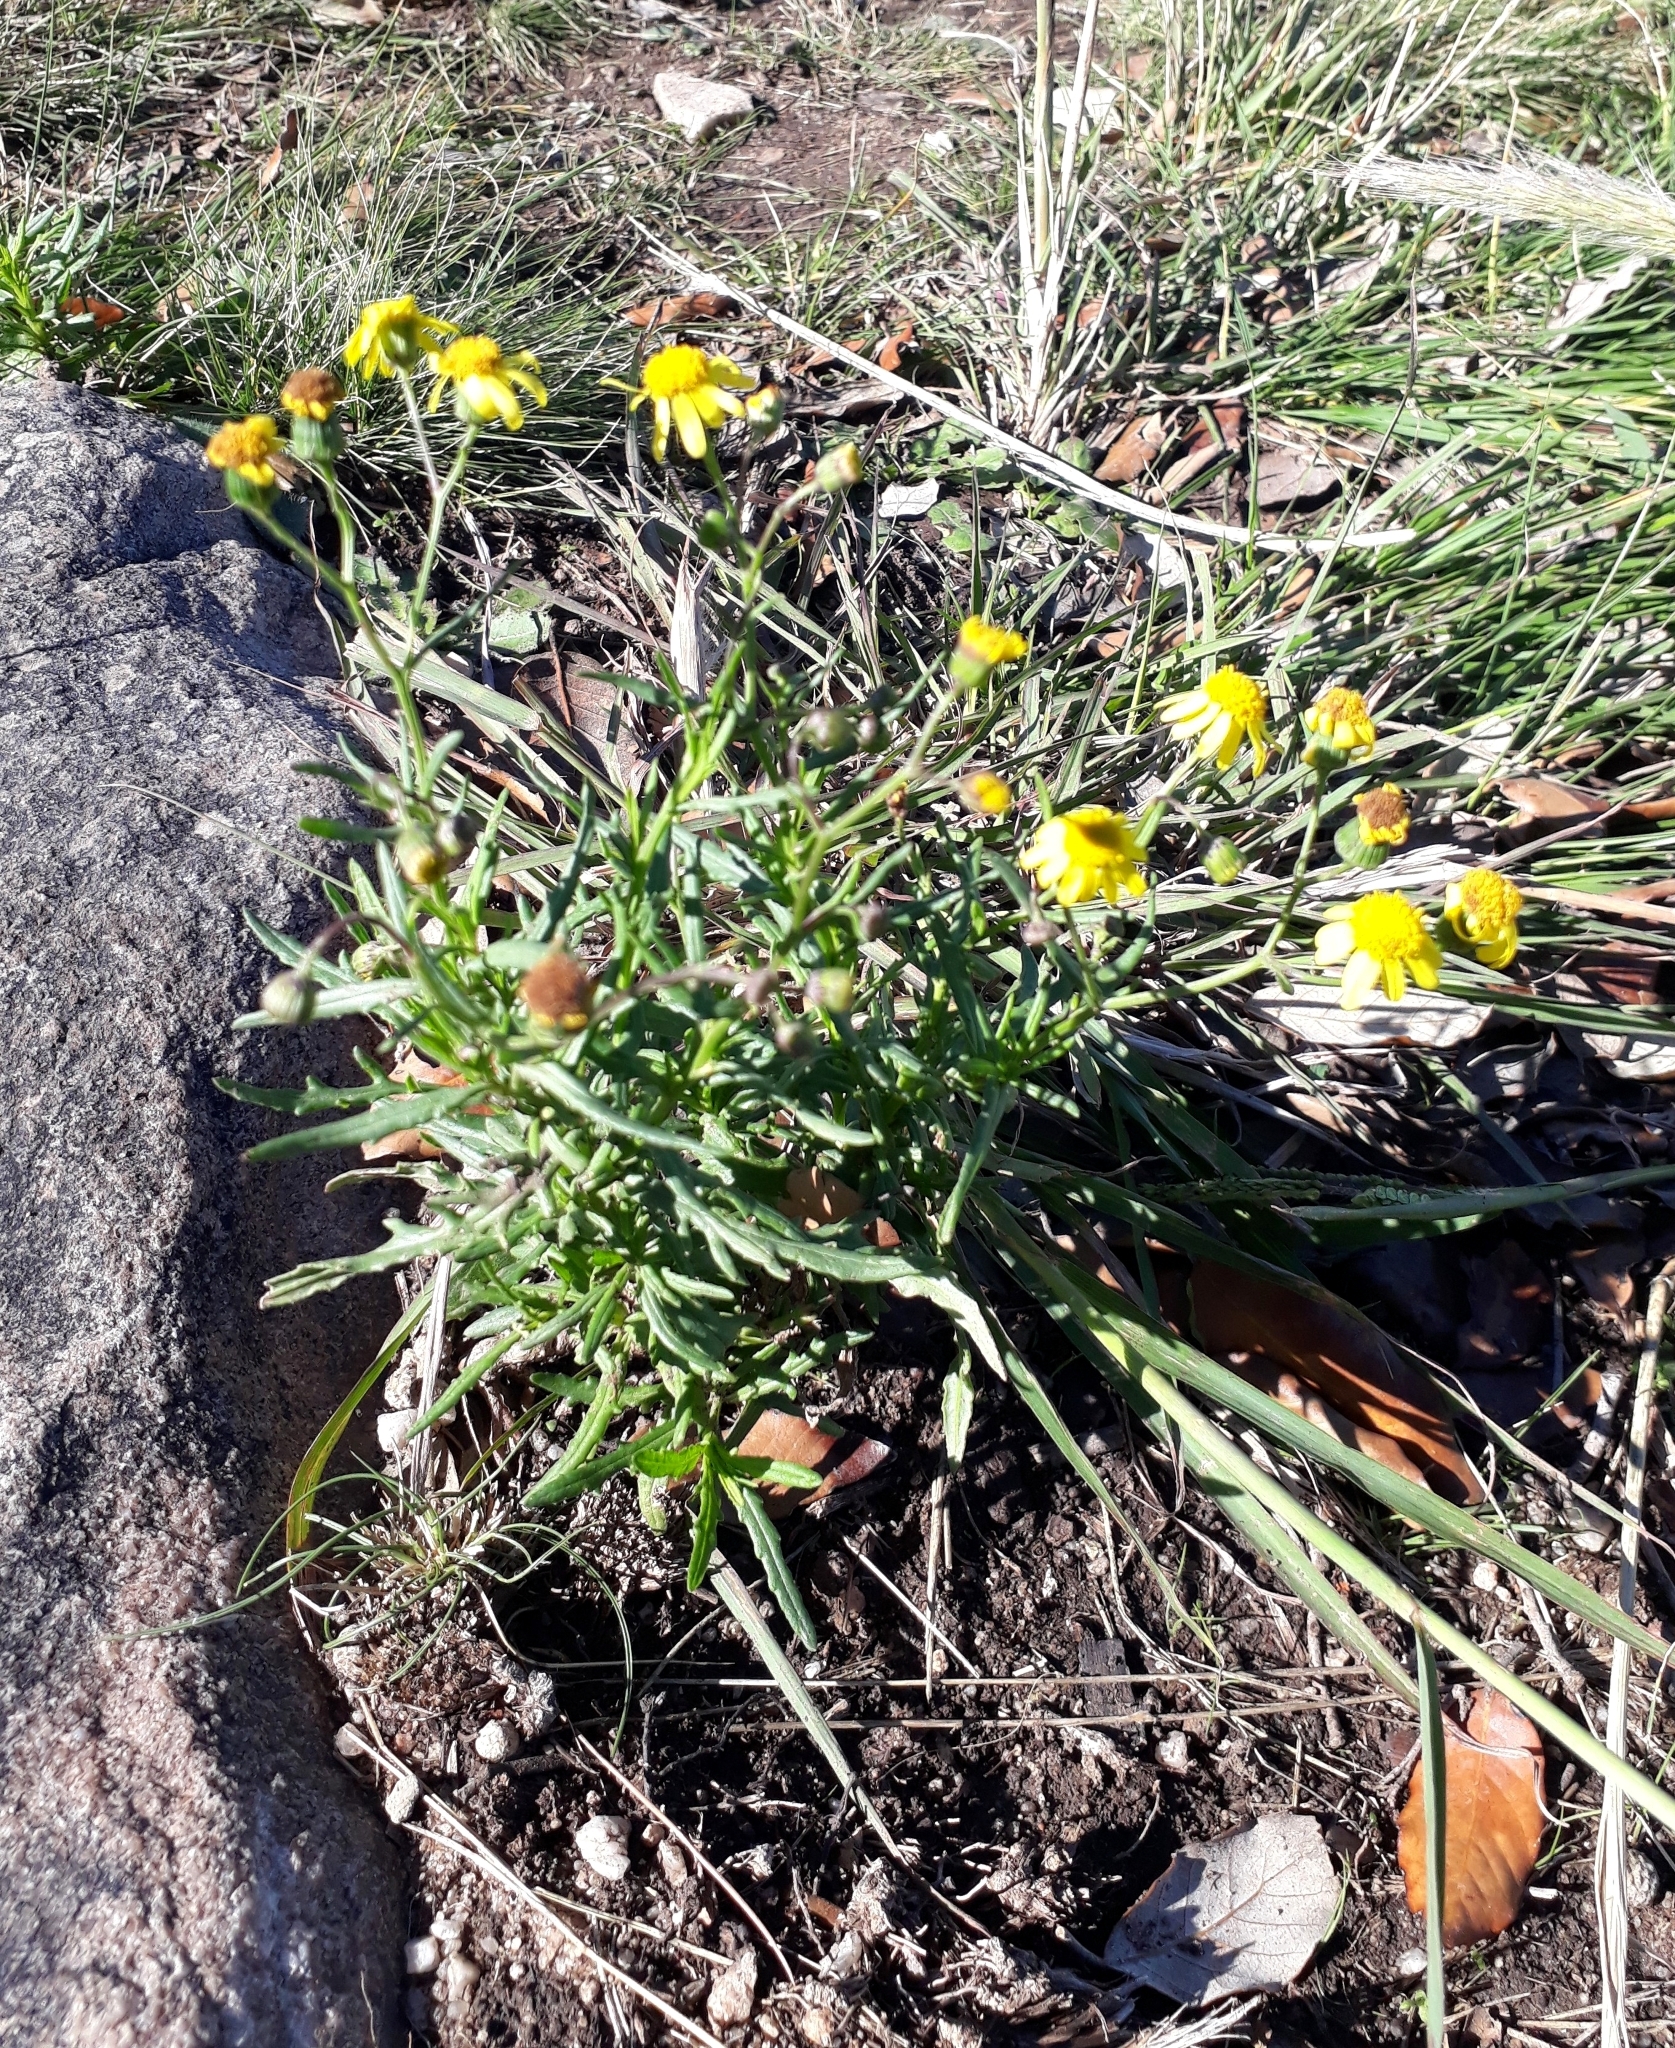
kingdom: Plantae
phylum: Tracheophyta
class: Magnoliopsida
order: Asterales
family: Asteraceae
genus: Senecio
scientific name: Senecio madagascariensis
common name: Madagascar ragwort
